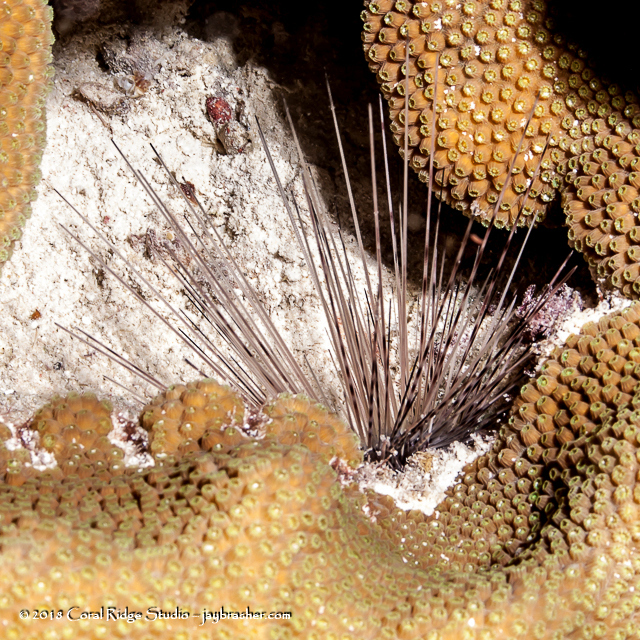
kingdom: Animalia
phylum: Echinodermata
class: Echinoidea
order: Diadematoida
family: Diadematidae
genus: Diadema
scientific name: Diadema antillarum
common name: Spiny urchin
